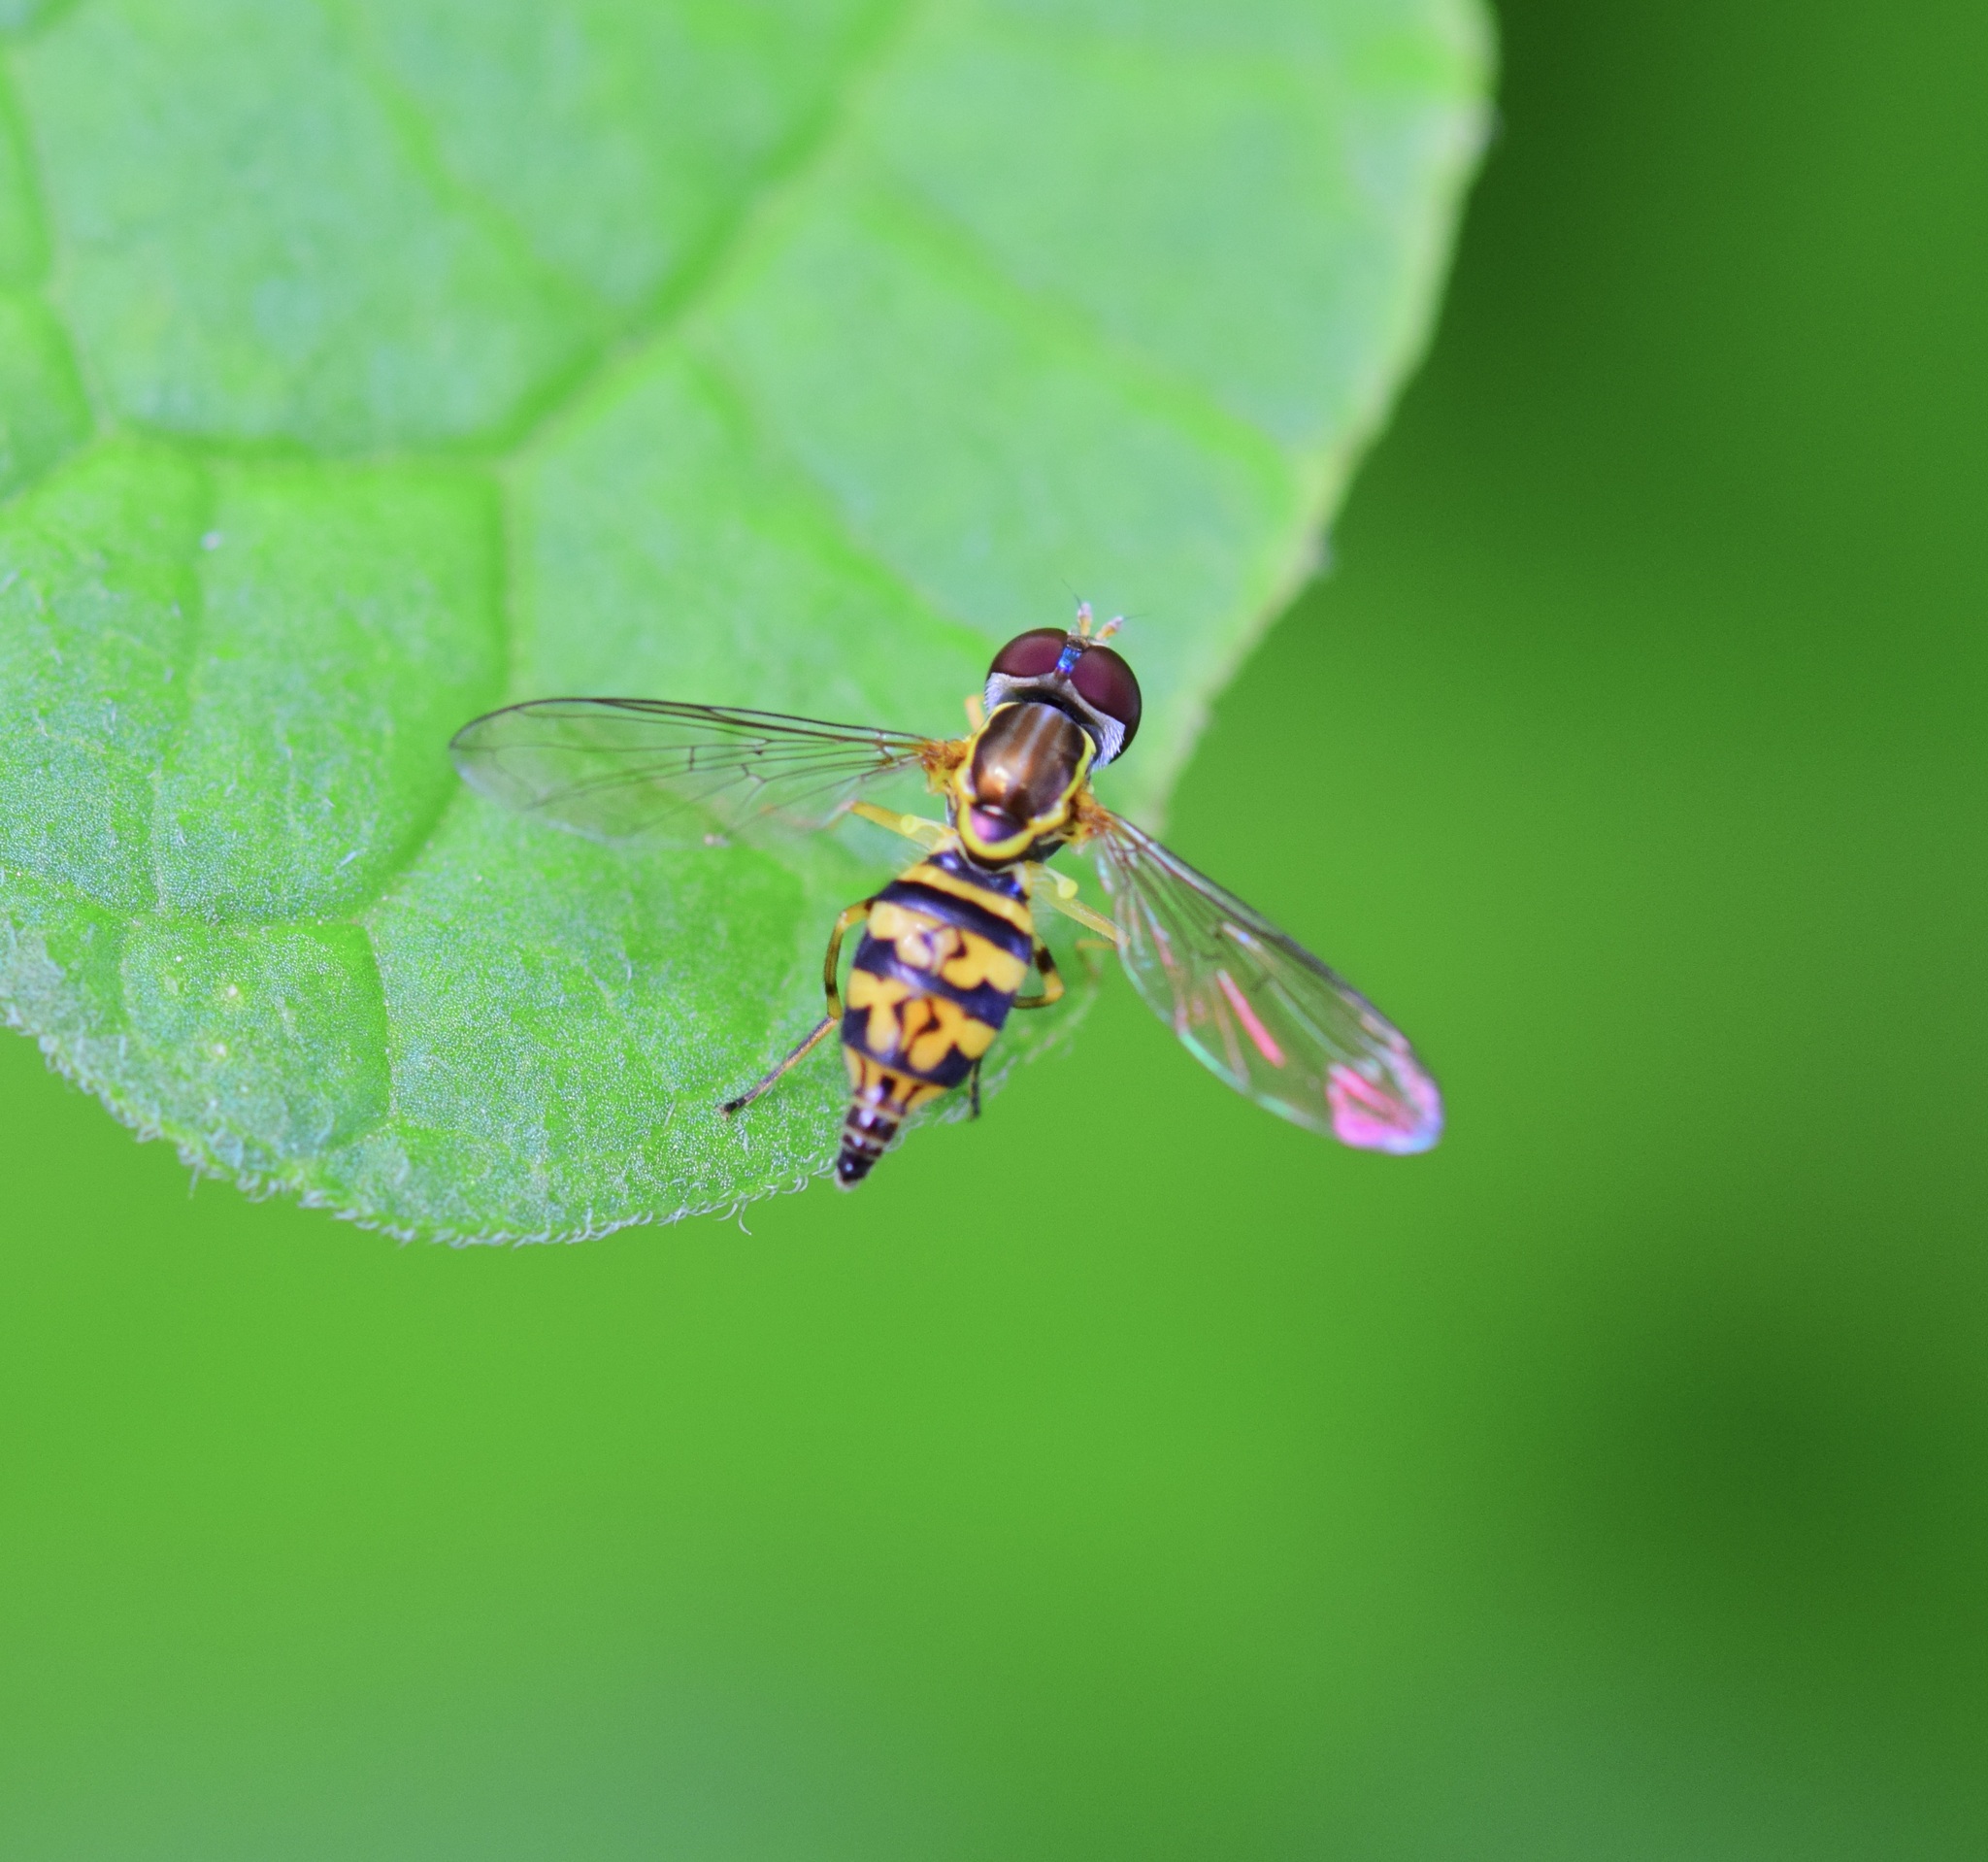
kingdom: Animalia
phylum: Arthropoda
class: Insecta
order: Diptera
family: Syrphidae
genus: Toxomerus
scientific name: Toxomerus geminatus
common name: Eastern calligrapher
